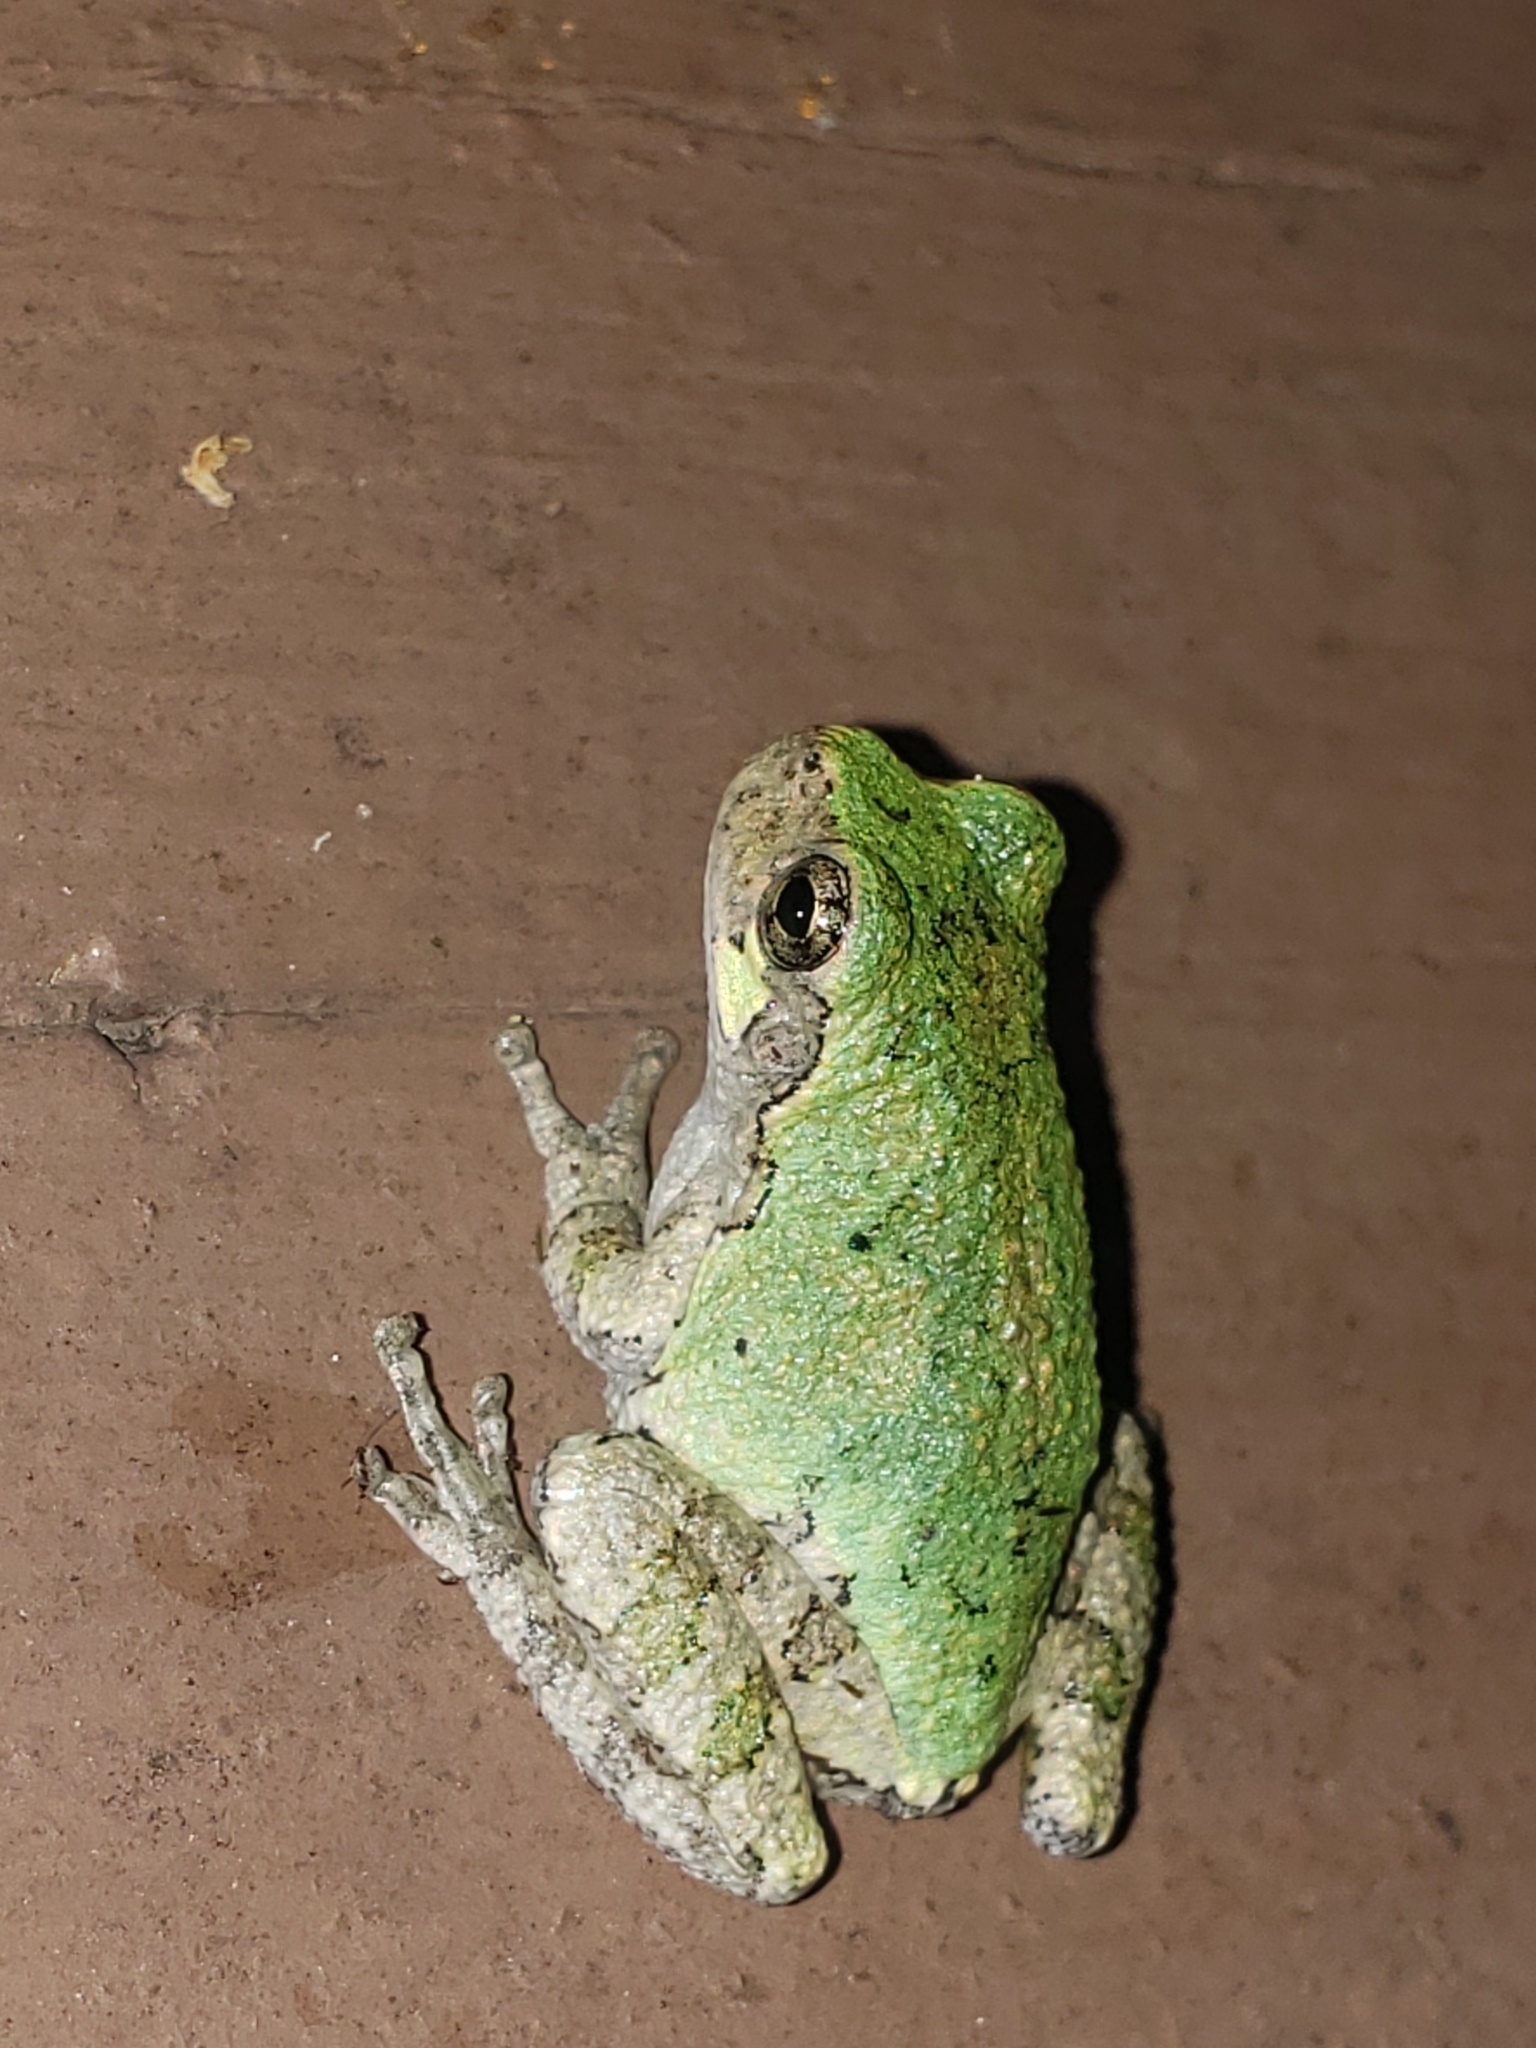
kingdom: Animalia
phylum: Chordata
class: Amphibia
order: Anura
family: Hylidae
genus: Hyla
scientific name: Hyla
